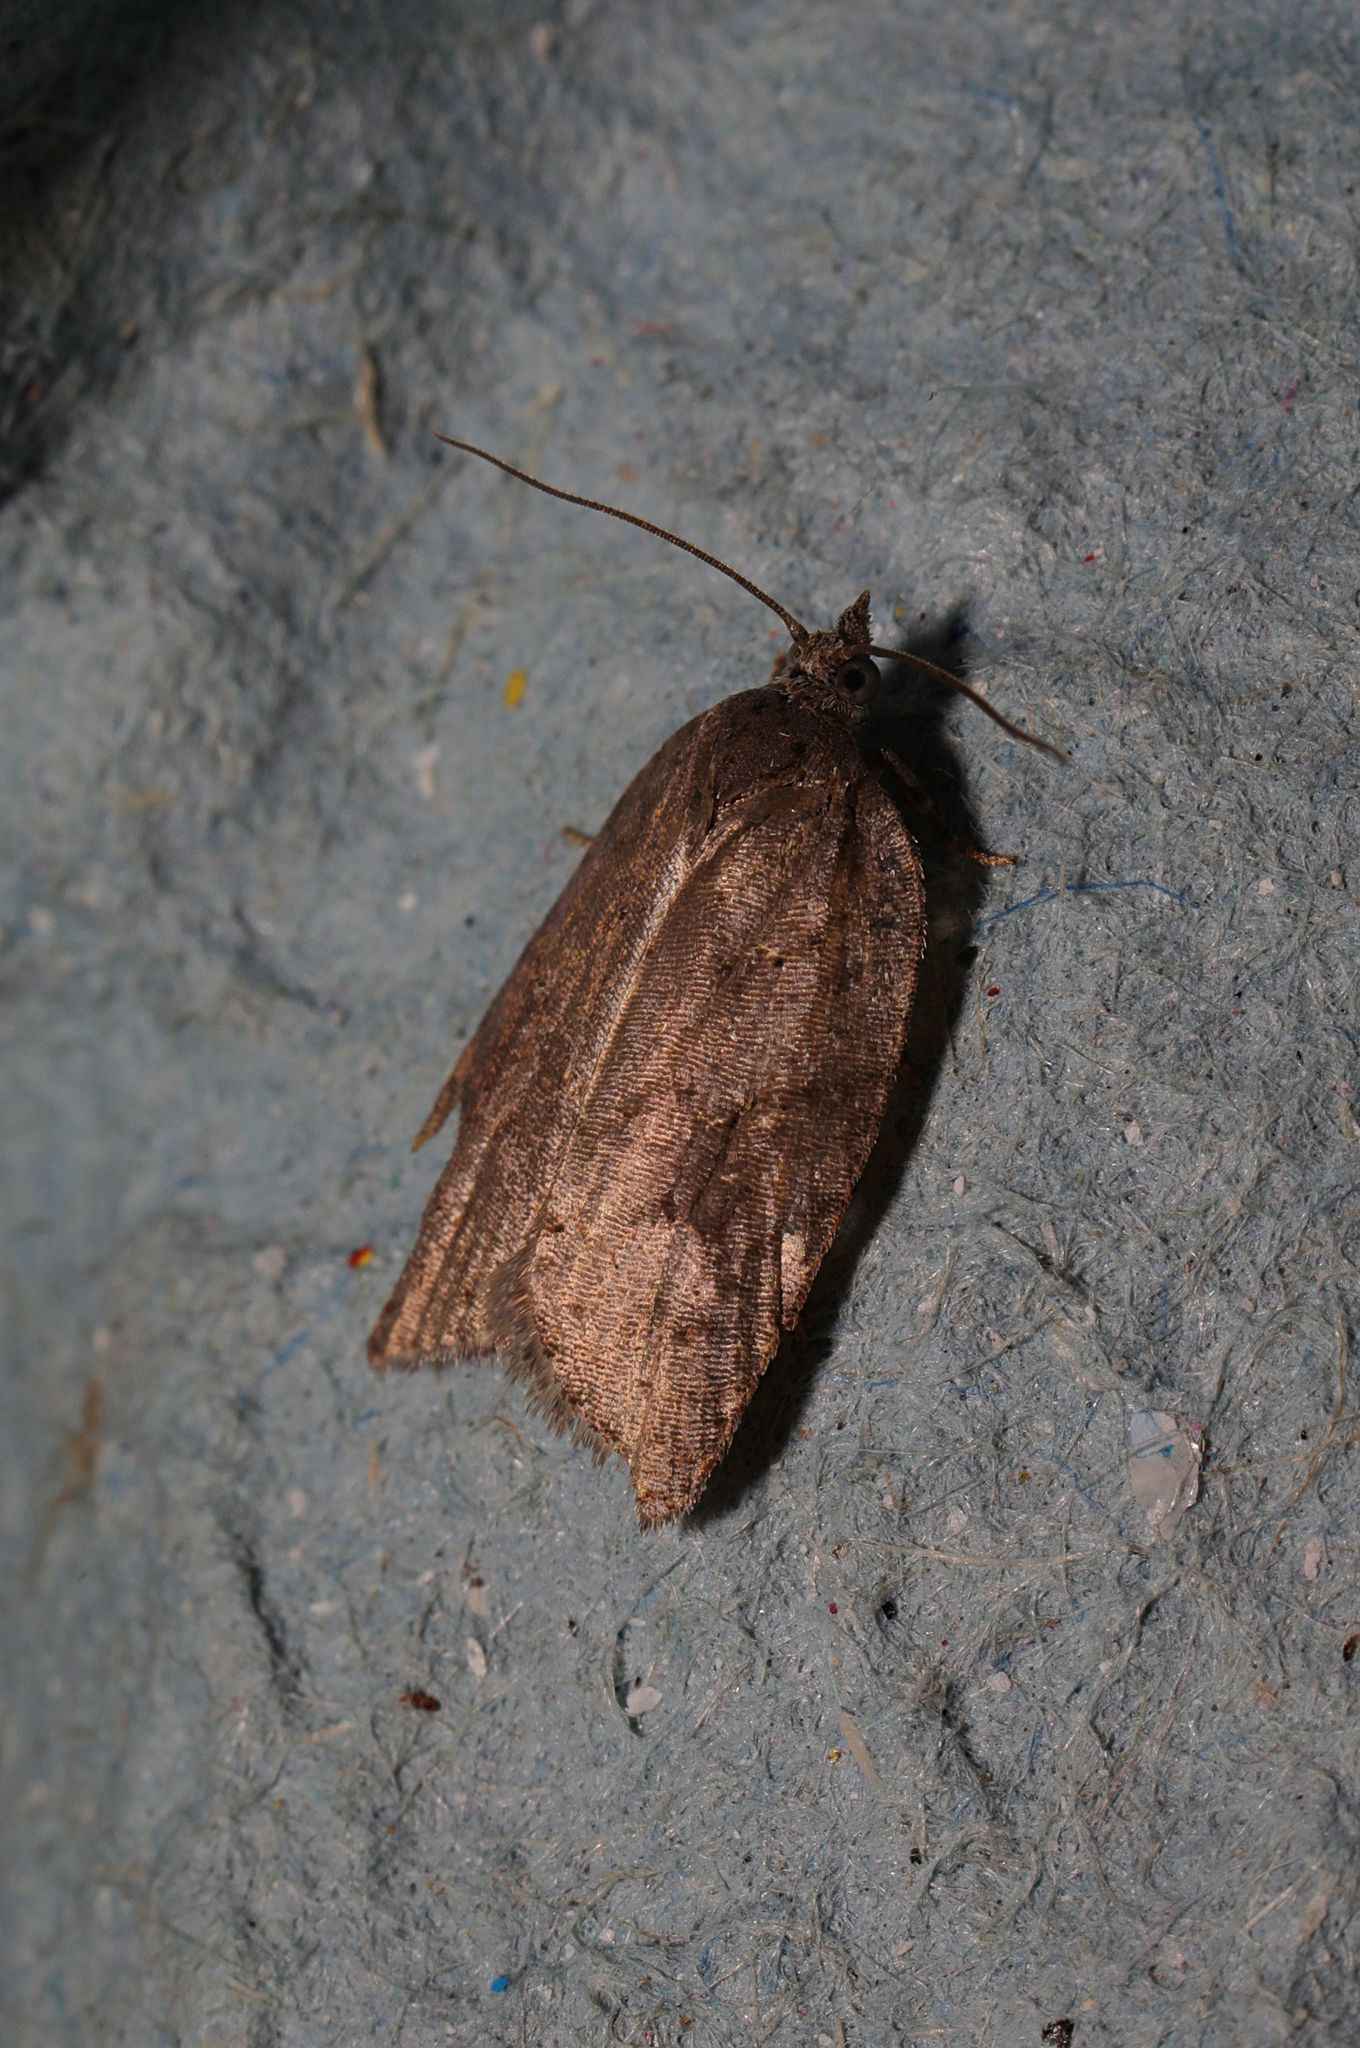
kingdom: Animalia
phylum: Arthropoda
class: Insecta
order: Lepidoptera
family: Tortricidae
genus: Acleris
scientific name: Acleris sparsana
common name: Ashy button
